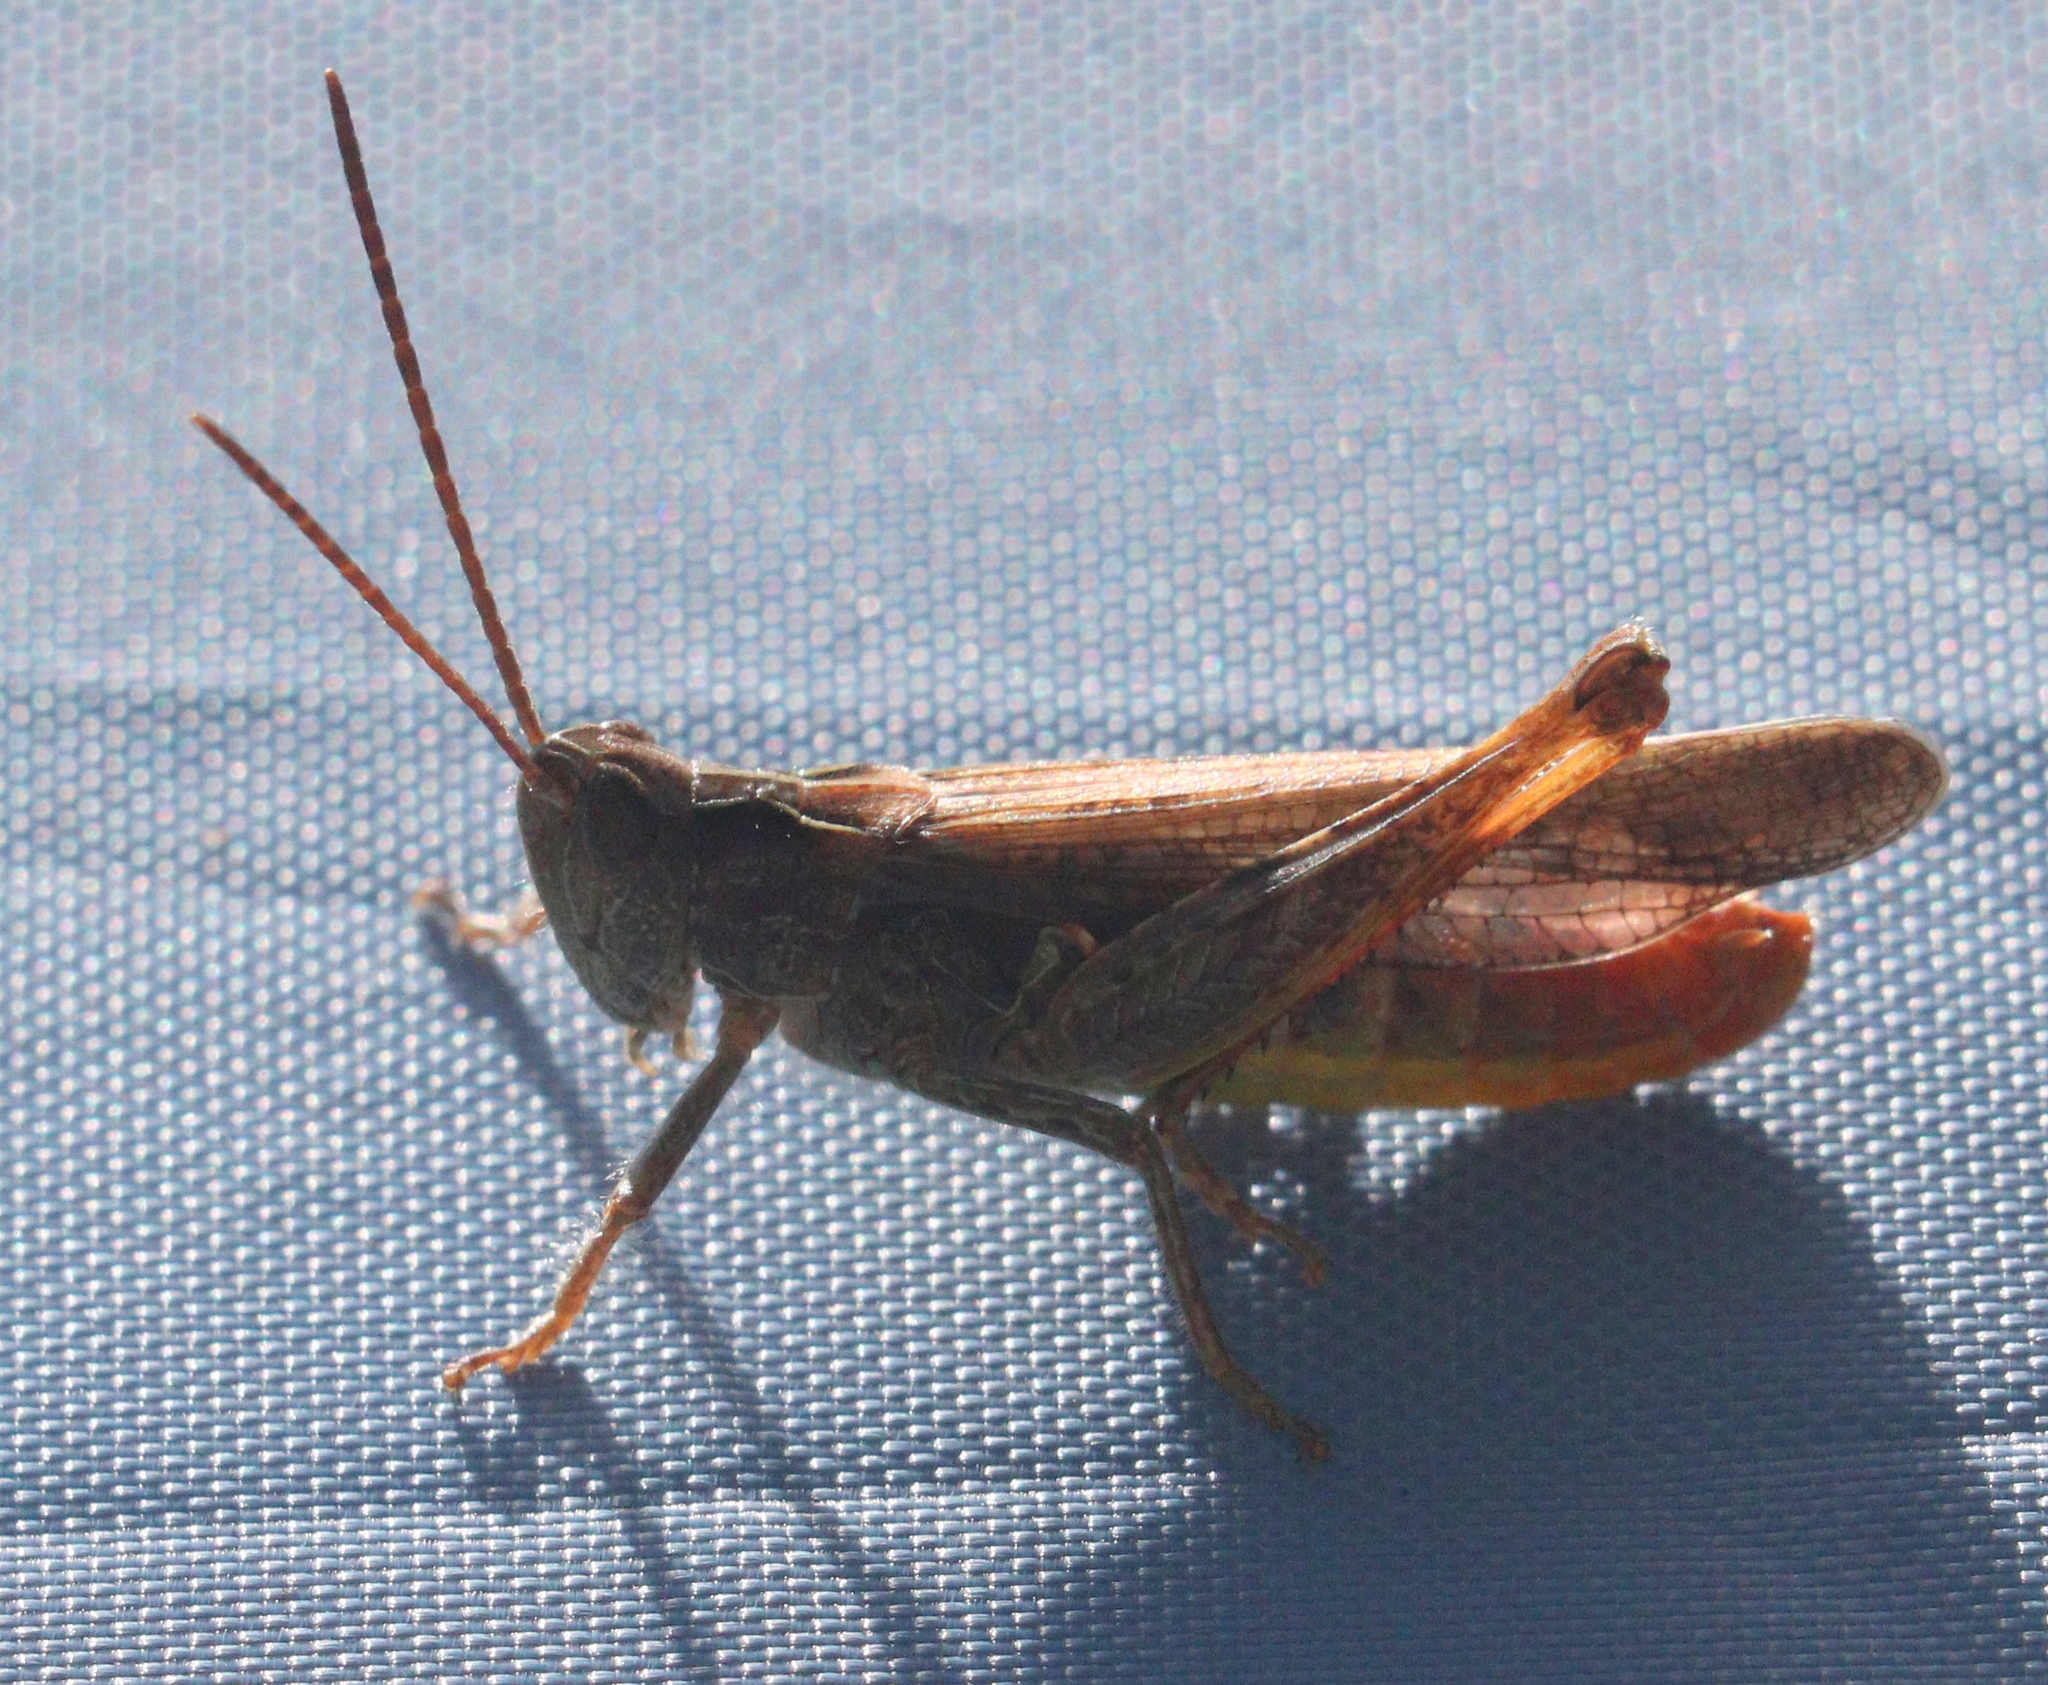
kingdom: Animalia
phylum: Arthropoda
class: Insecta
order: Orthoptera
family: Acrididae
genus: Chorthippus
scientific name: Chorthippus biguttulus
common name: Bow-winged grasshopper
